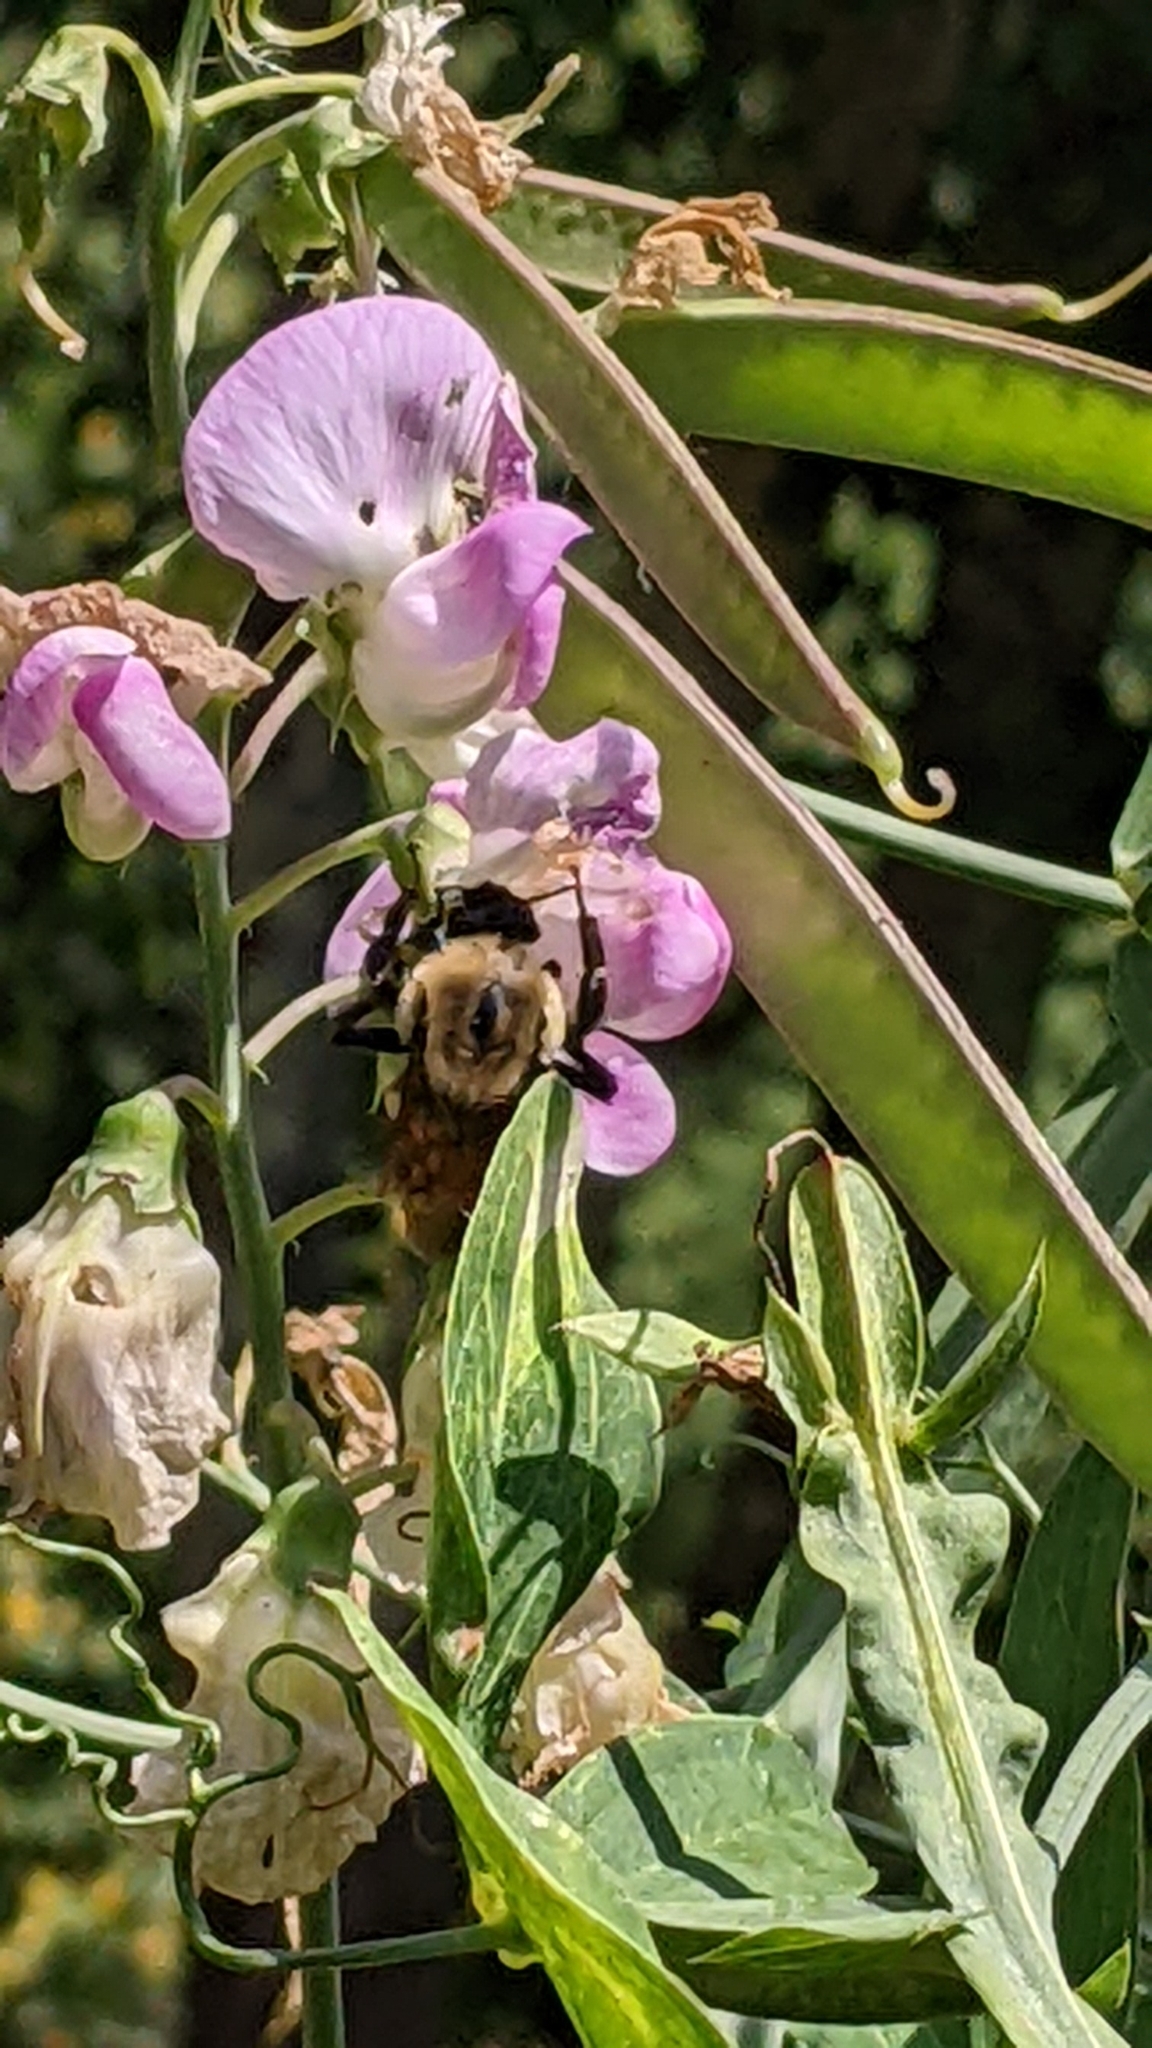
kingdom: Animalia
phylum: Arthropoda
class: Insecta
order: Hymenoptera
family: Apidae
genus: Bombus
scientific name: Bombus griseocollis
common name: Brown-belted bumble bee
